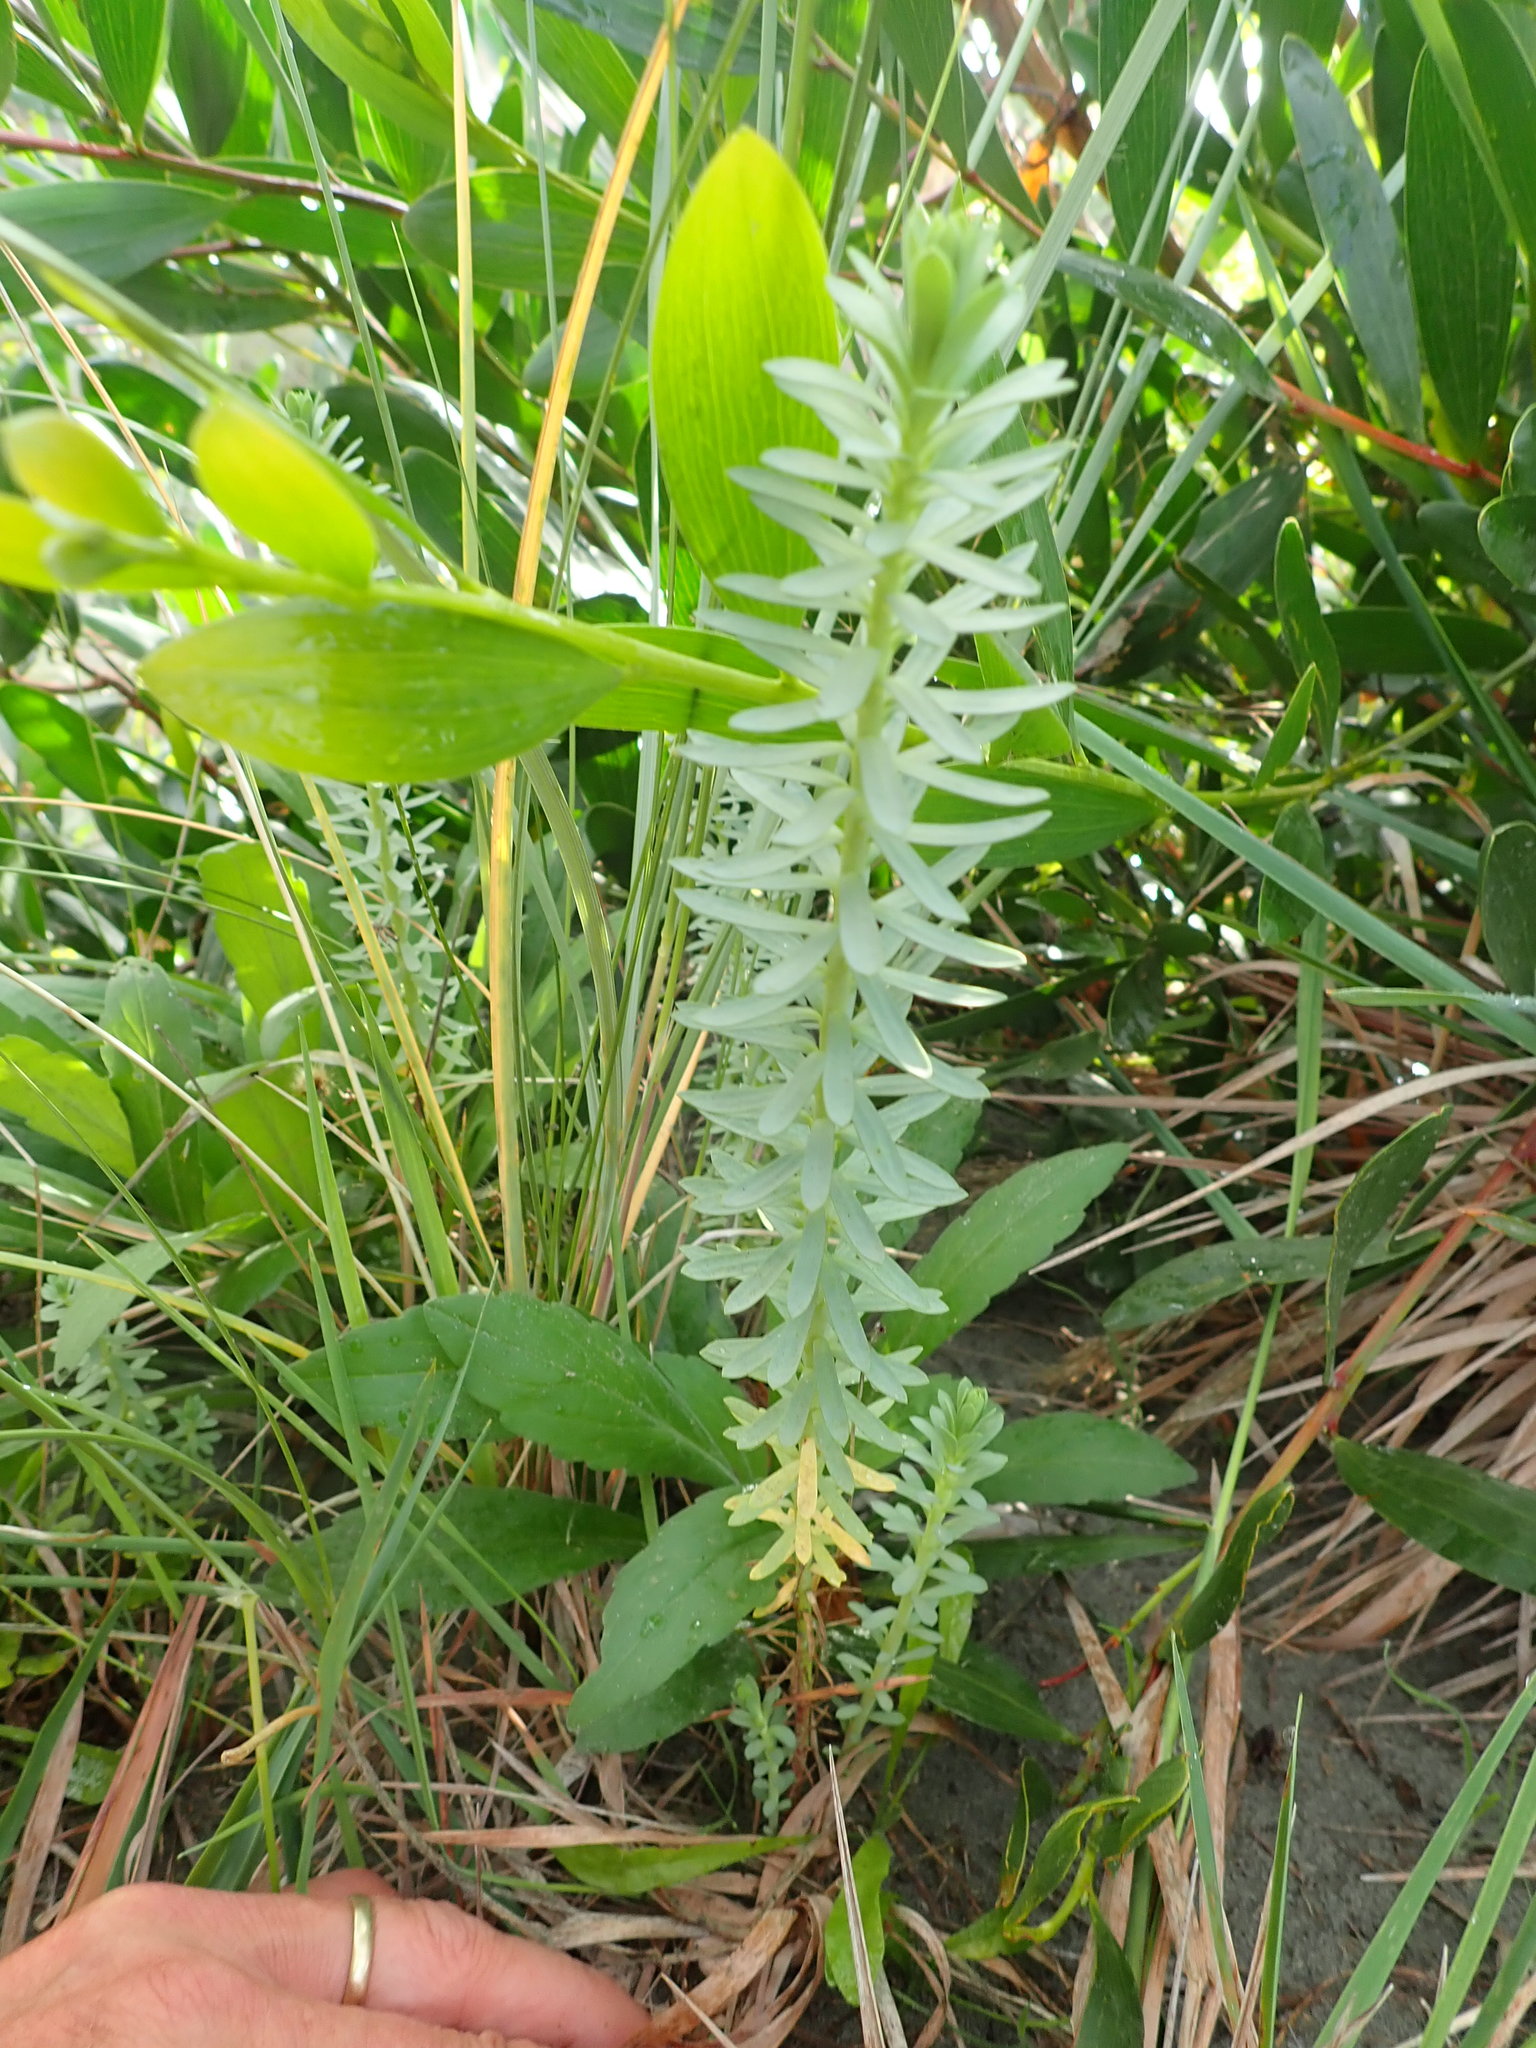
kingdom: Plantae
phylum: Tracheophyta
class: Magnoliopsida
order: Malpighiales
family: Euphorbiaceae
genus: Euphorbia
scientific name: Euphorbia paralias
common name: Sea spurge
